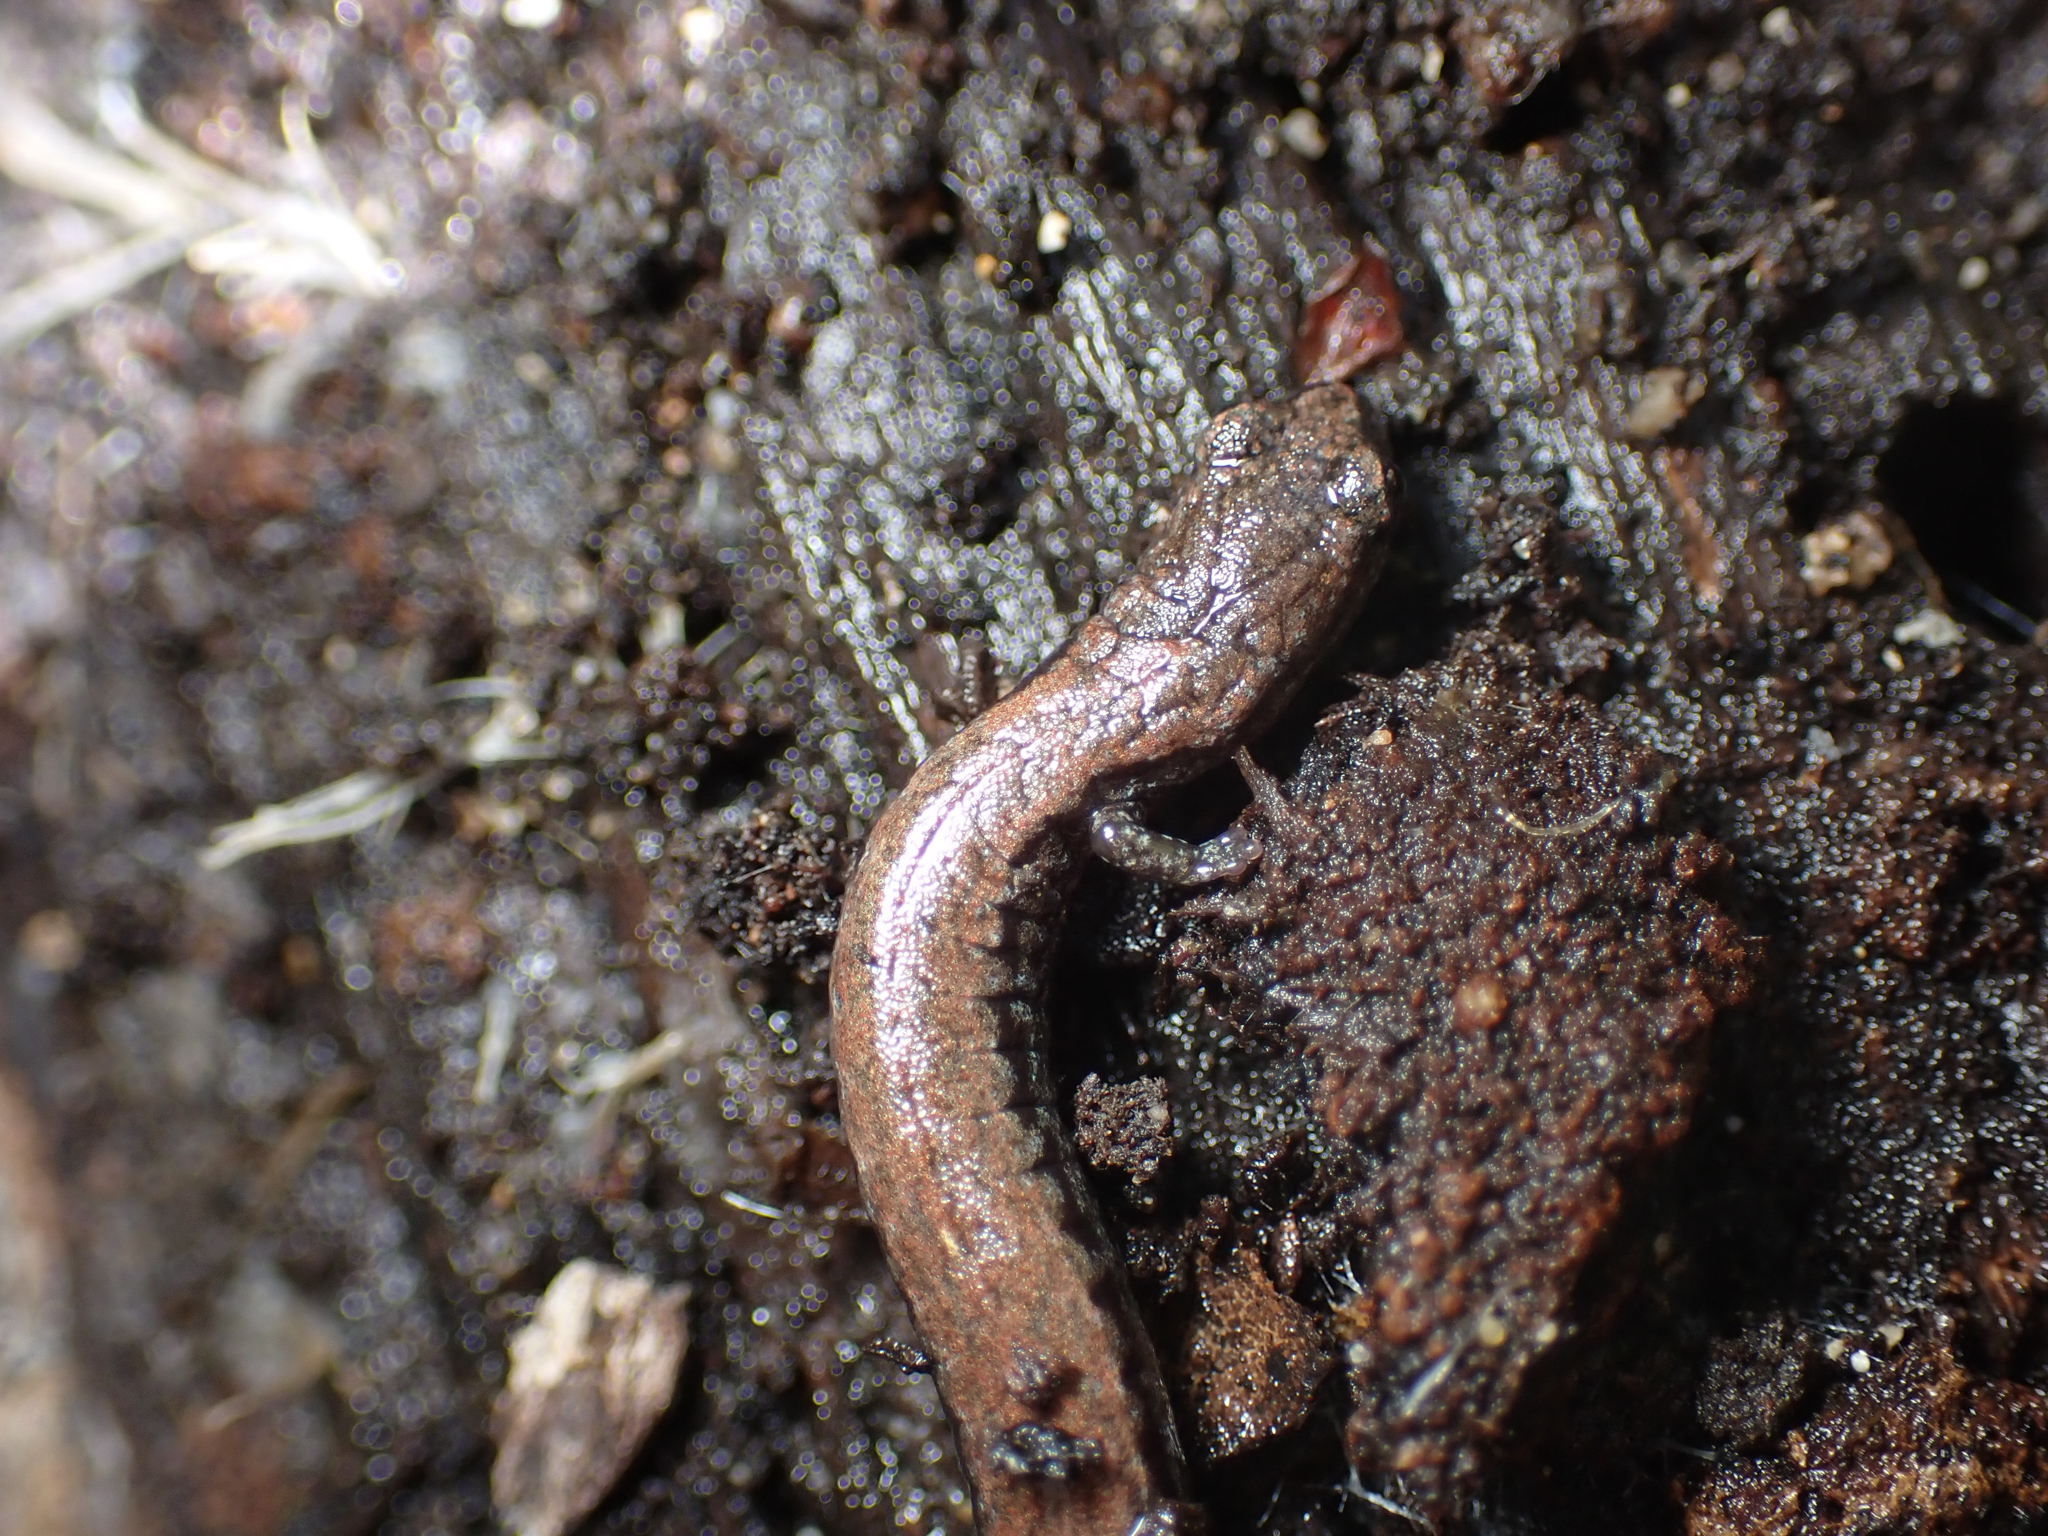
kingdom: Animalia
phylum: Chordata
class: Amphibia
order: Caudata
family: Plethodontidae
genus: Batrachoseps
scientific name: Batrachoseps nigriventris
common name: Black-bellied slender salamander
